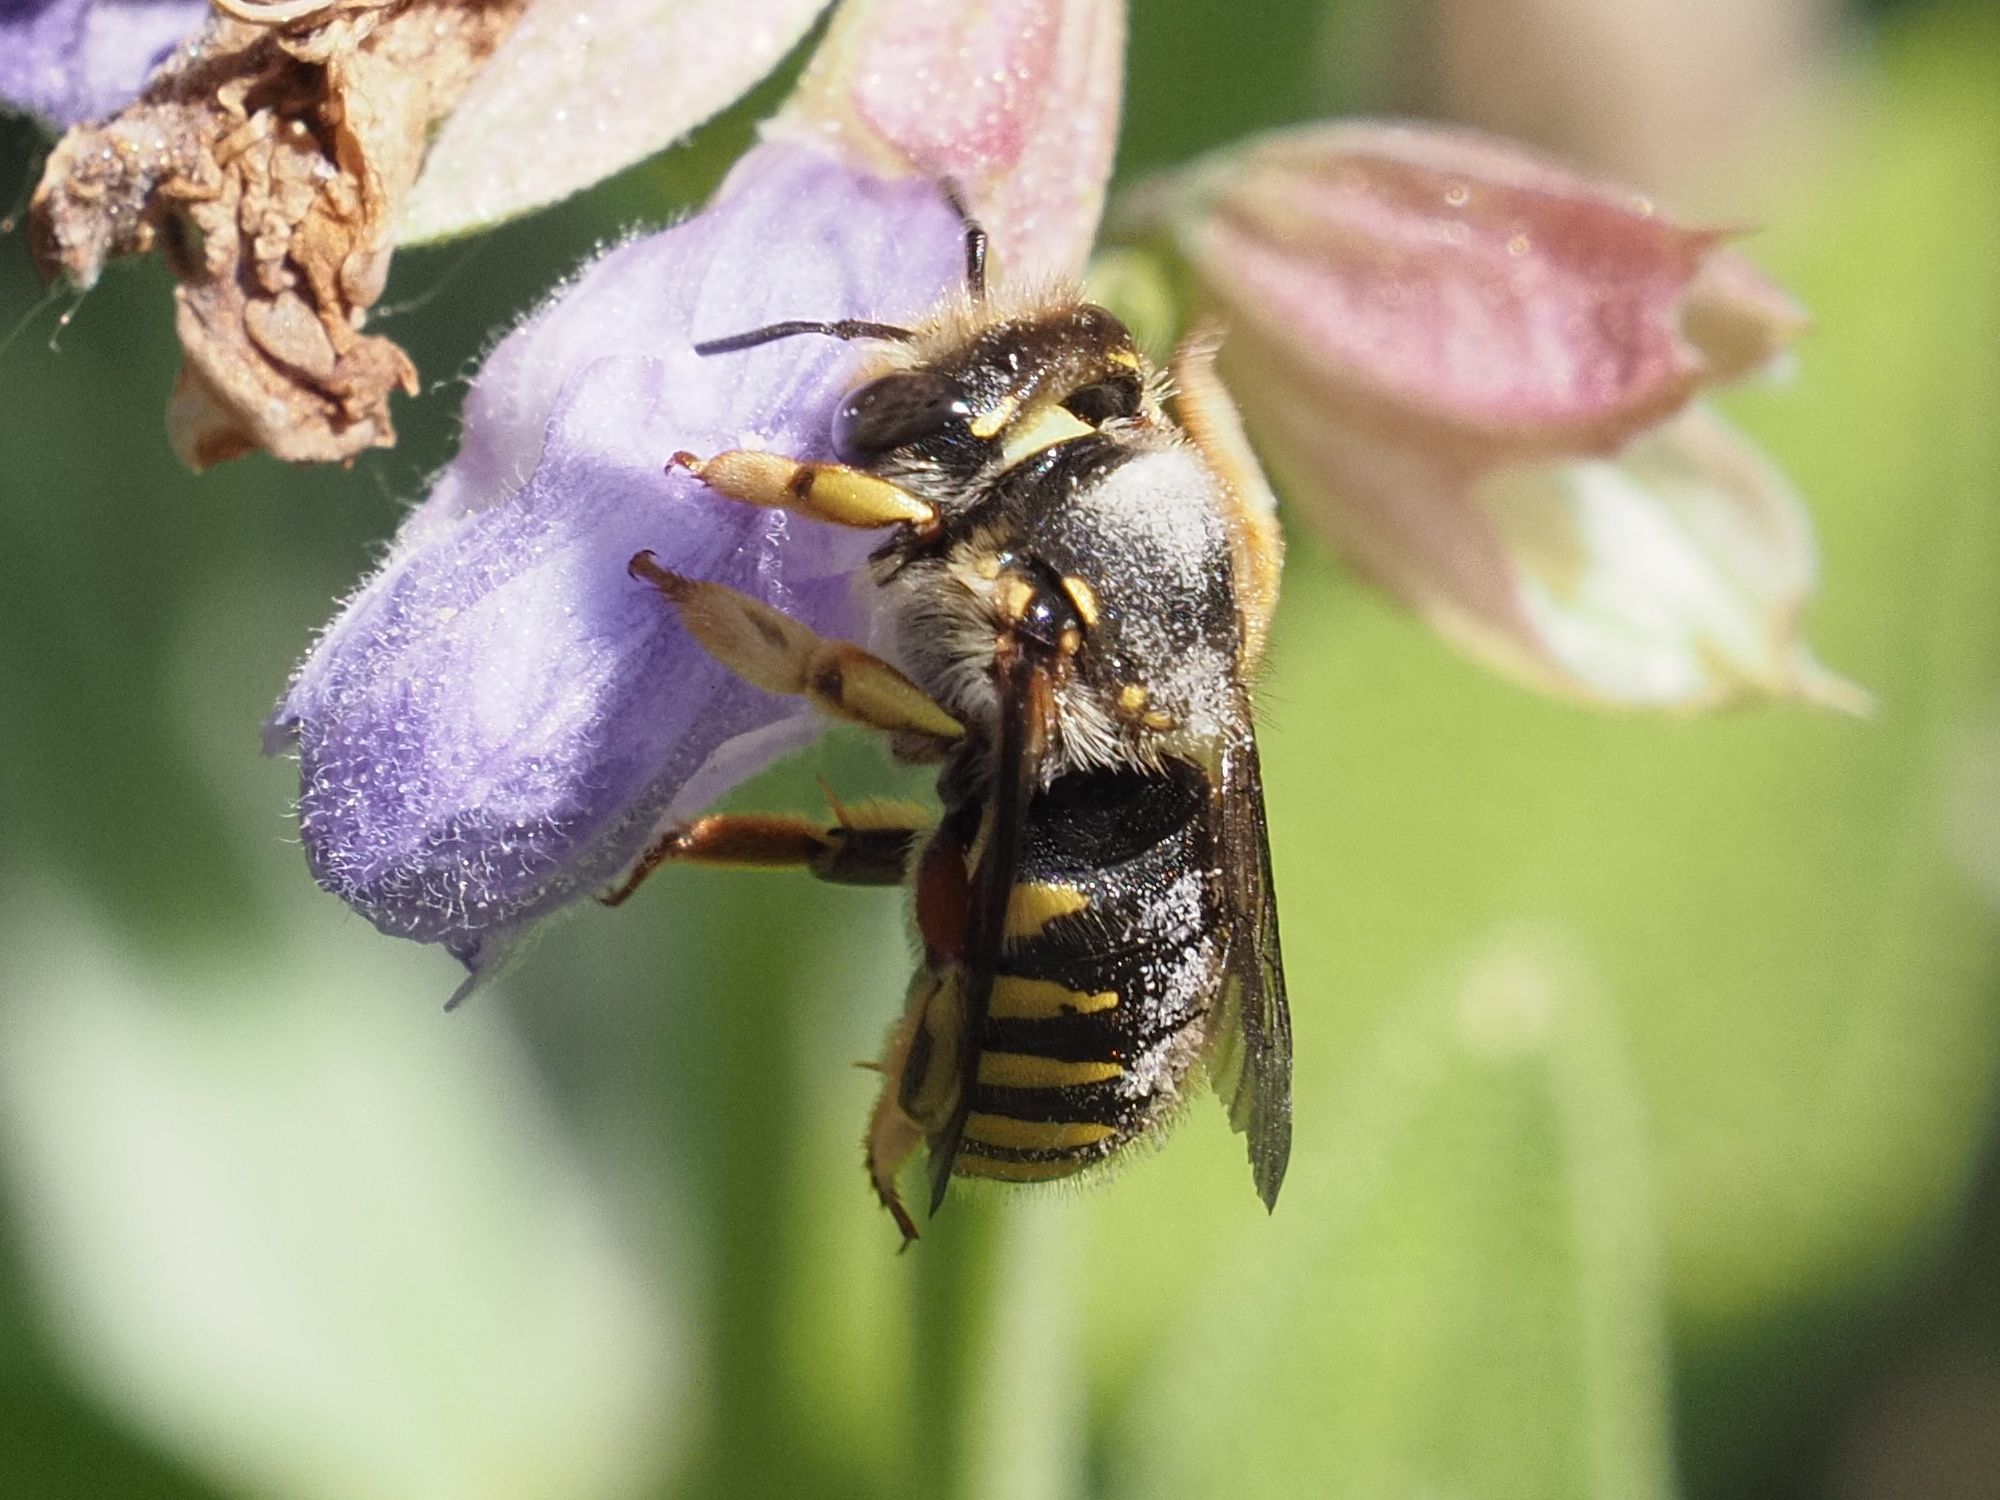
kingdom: Animalia
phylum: Arthropoda
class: Insecta
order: Hymenoptera
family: Megachilidae
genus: Anthidium
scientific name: Anthidium manicatum
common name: Wool carder bee
